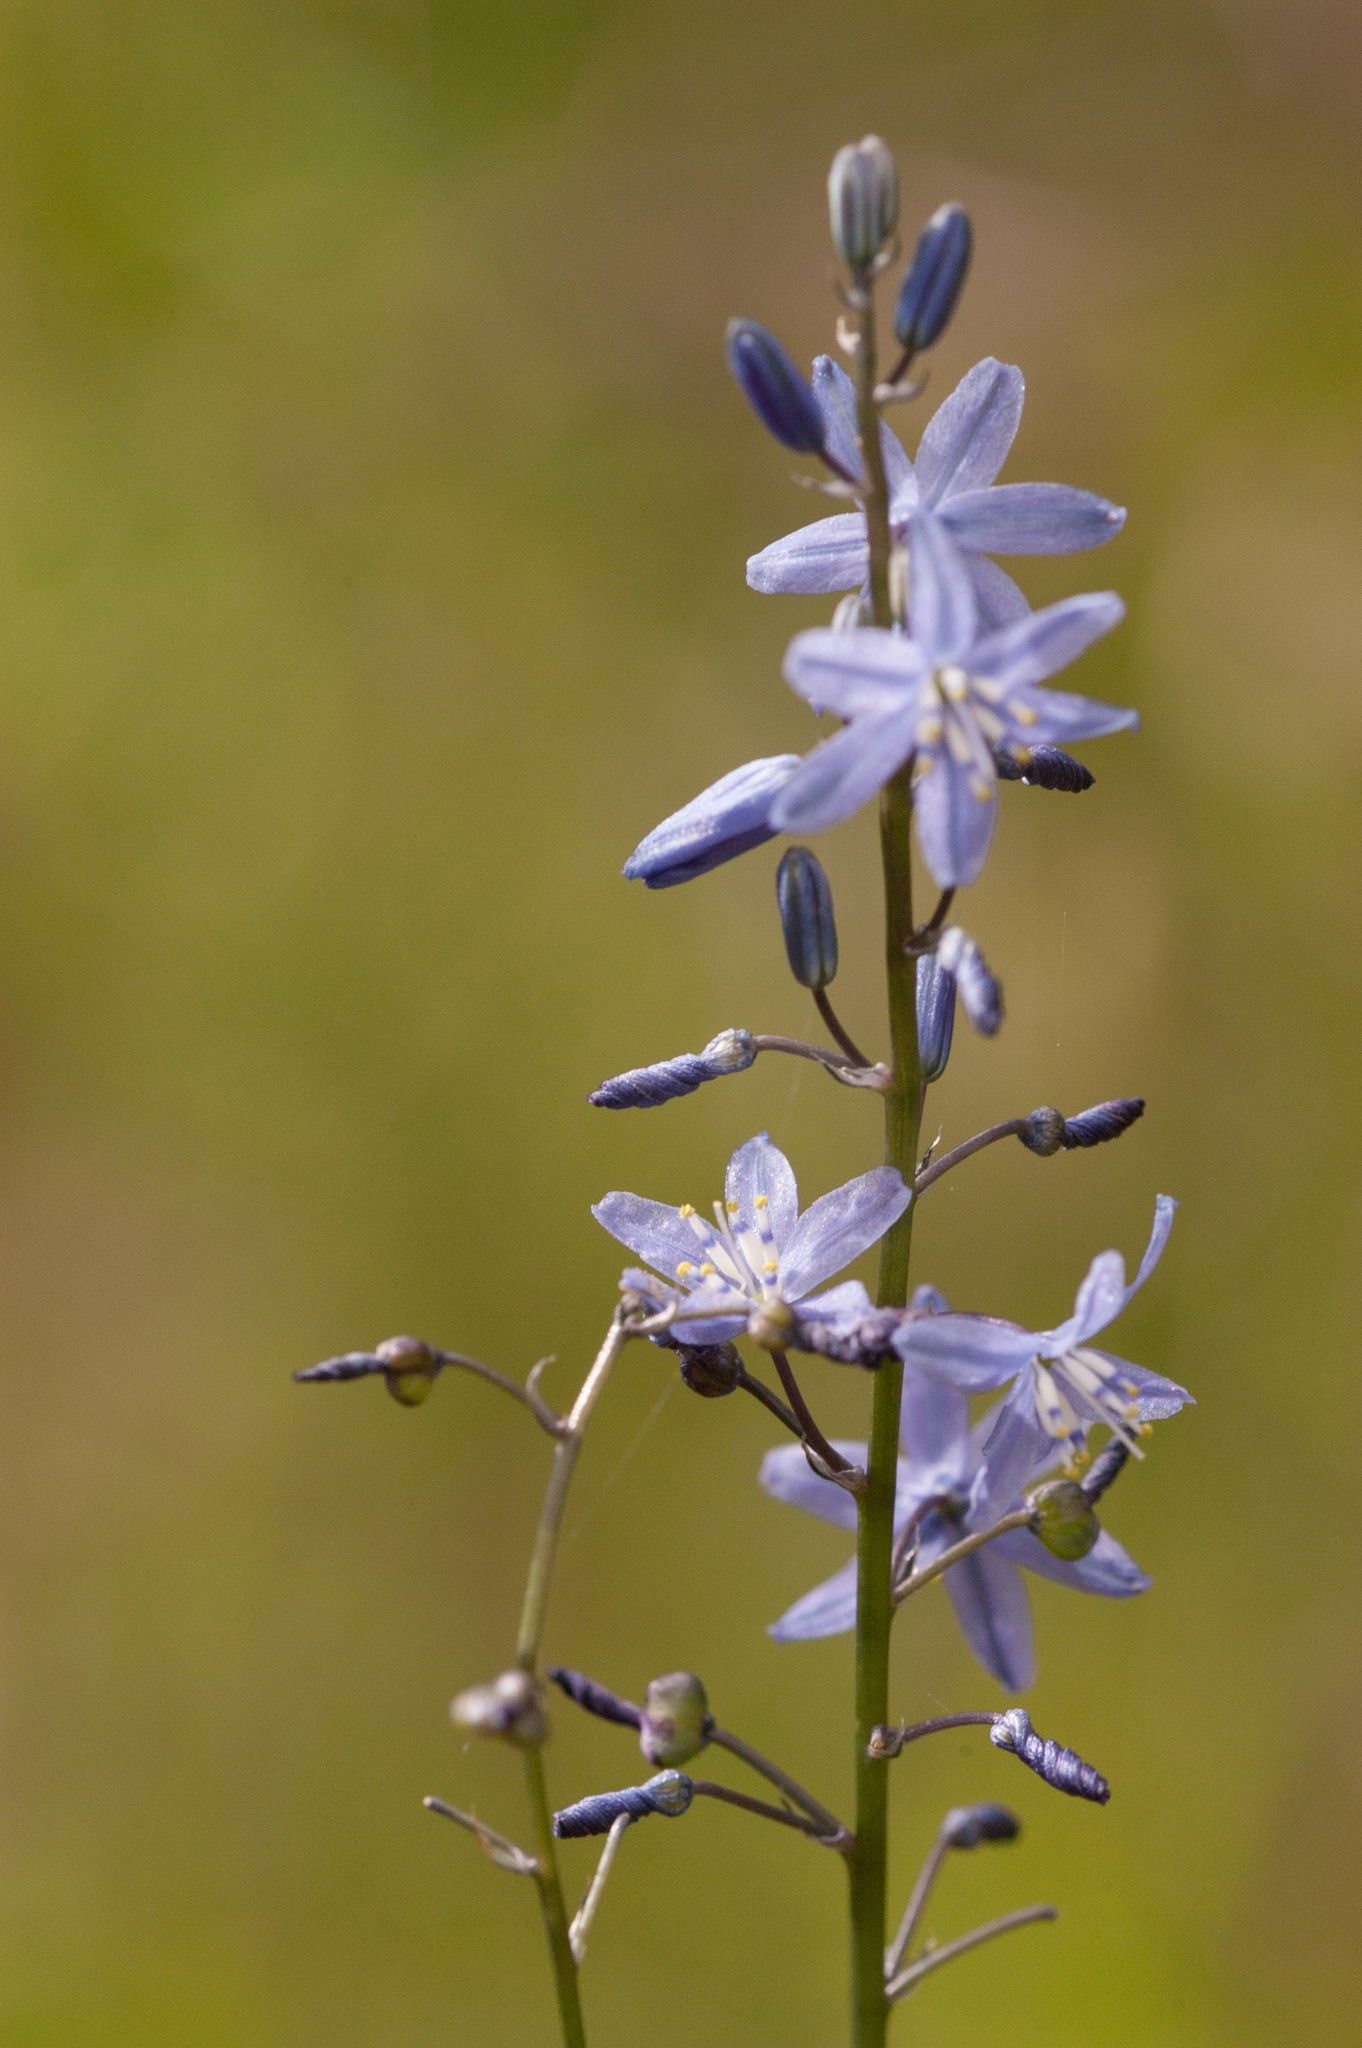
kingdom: Plantae
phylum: Tracheophyta
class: Liliopsida
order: Asparagales
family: Asphodelaceae
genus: Caesia
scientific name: Caesia calliantha
